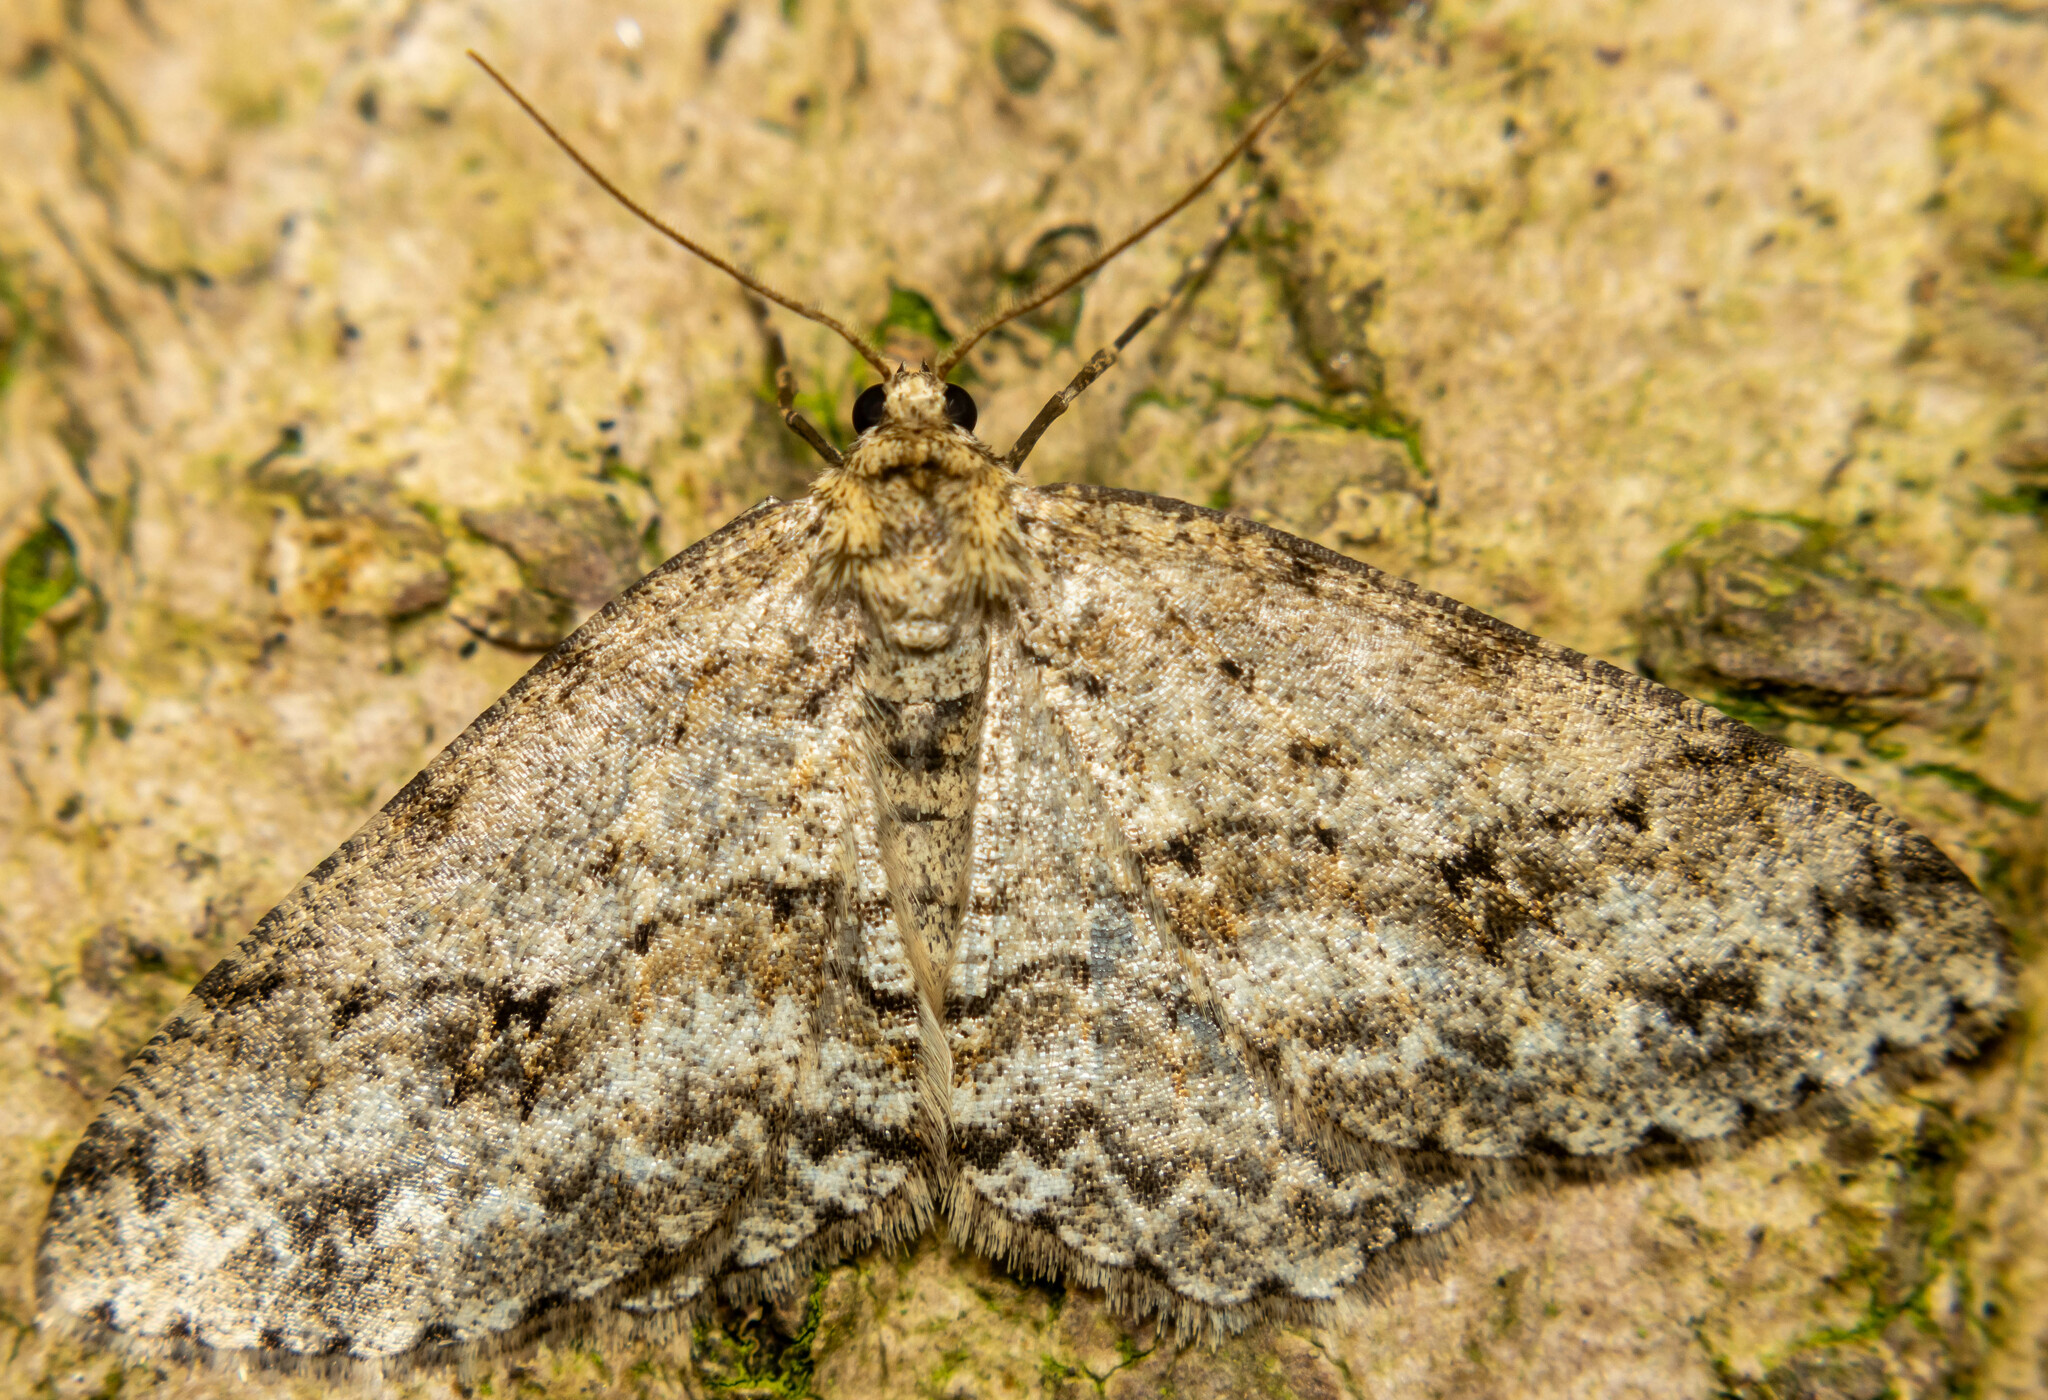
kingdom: Animalia
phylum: Arthropoda
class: Insecta
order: Lepidoptera
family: Geometridae
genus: Ectropis
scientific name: Ectropis crepuscularia
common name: Engrailed
